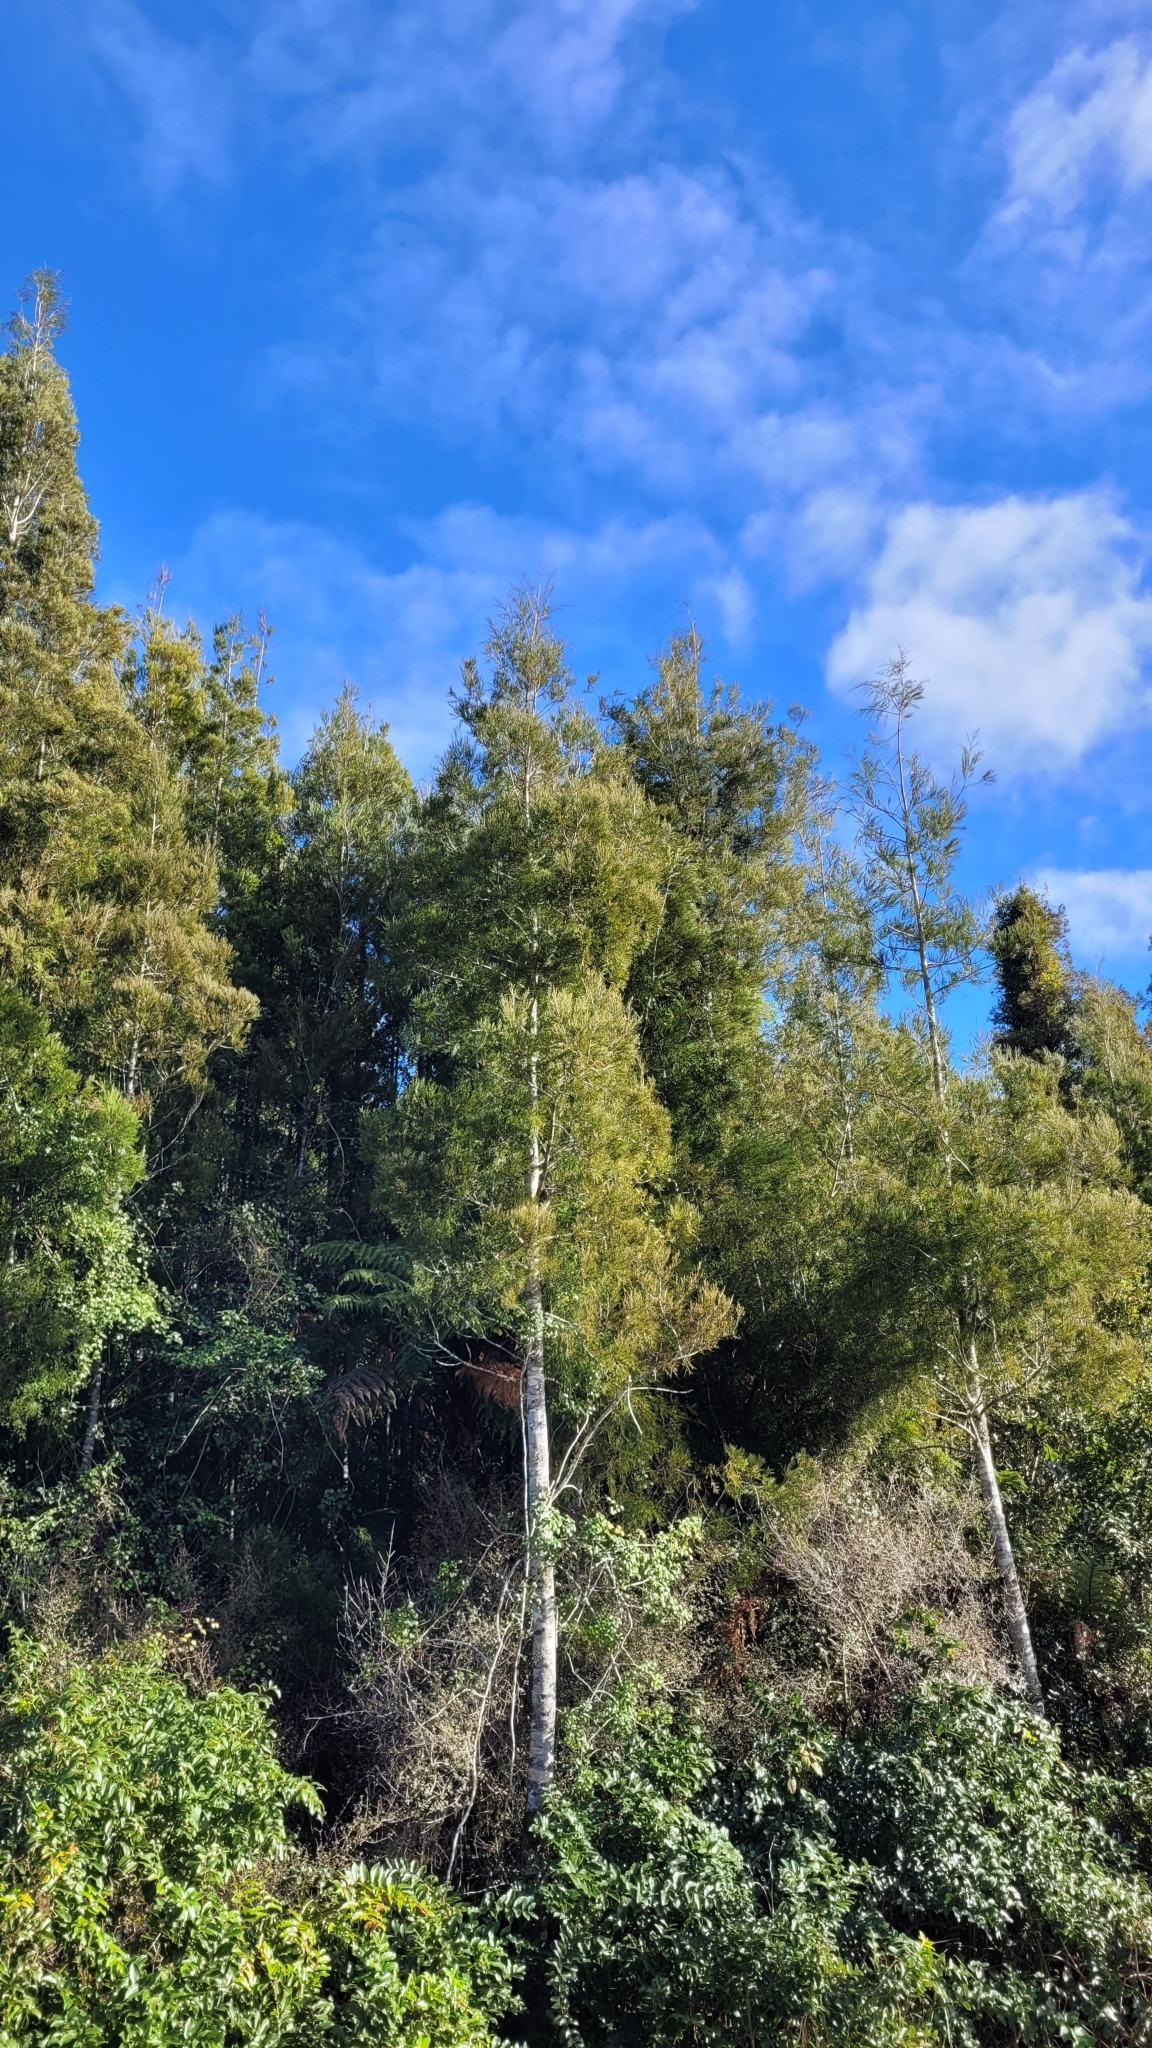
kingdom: Plantae
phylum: Tracheophyta
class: Pinopsida
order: Pinales
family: Podocarpaceae
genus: Manoao
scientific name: Manoao colensoi
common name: Silver pine
